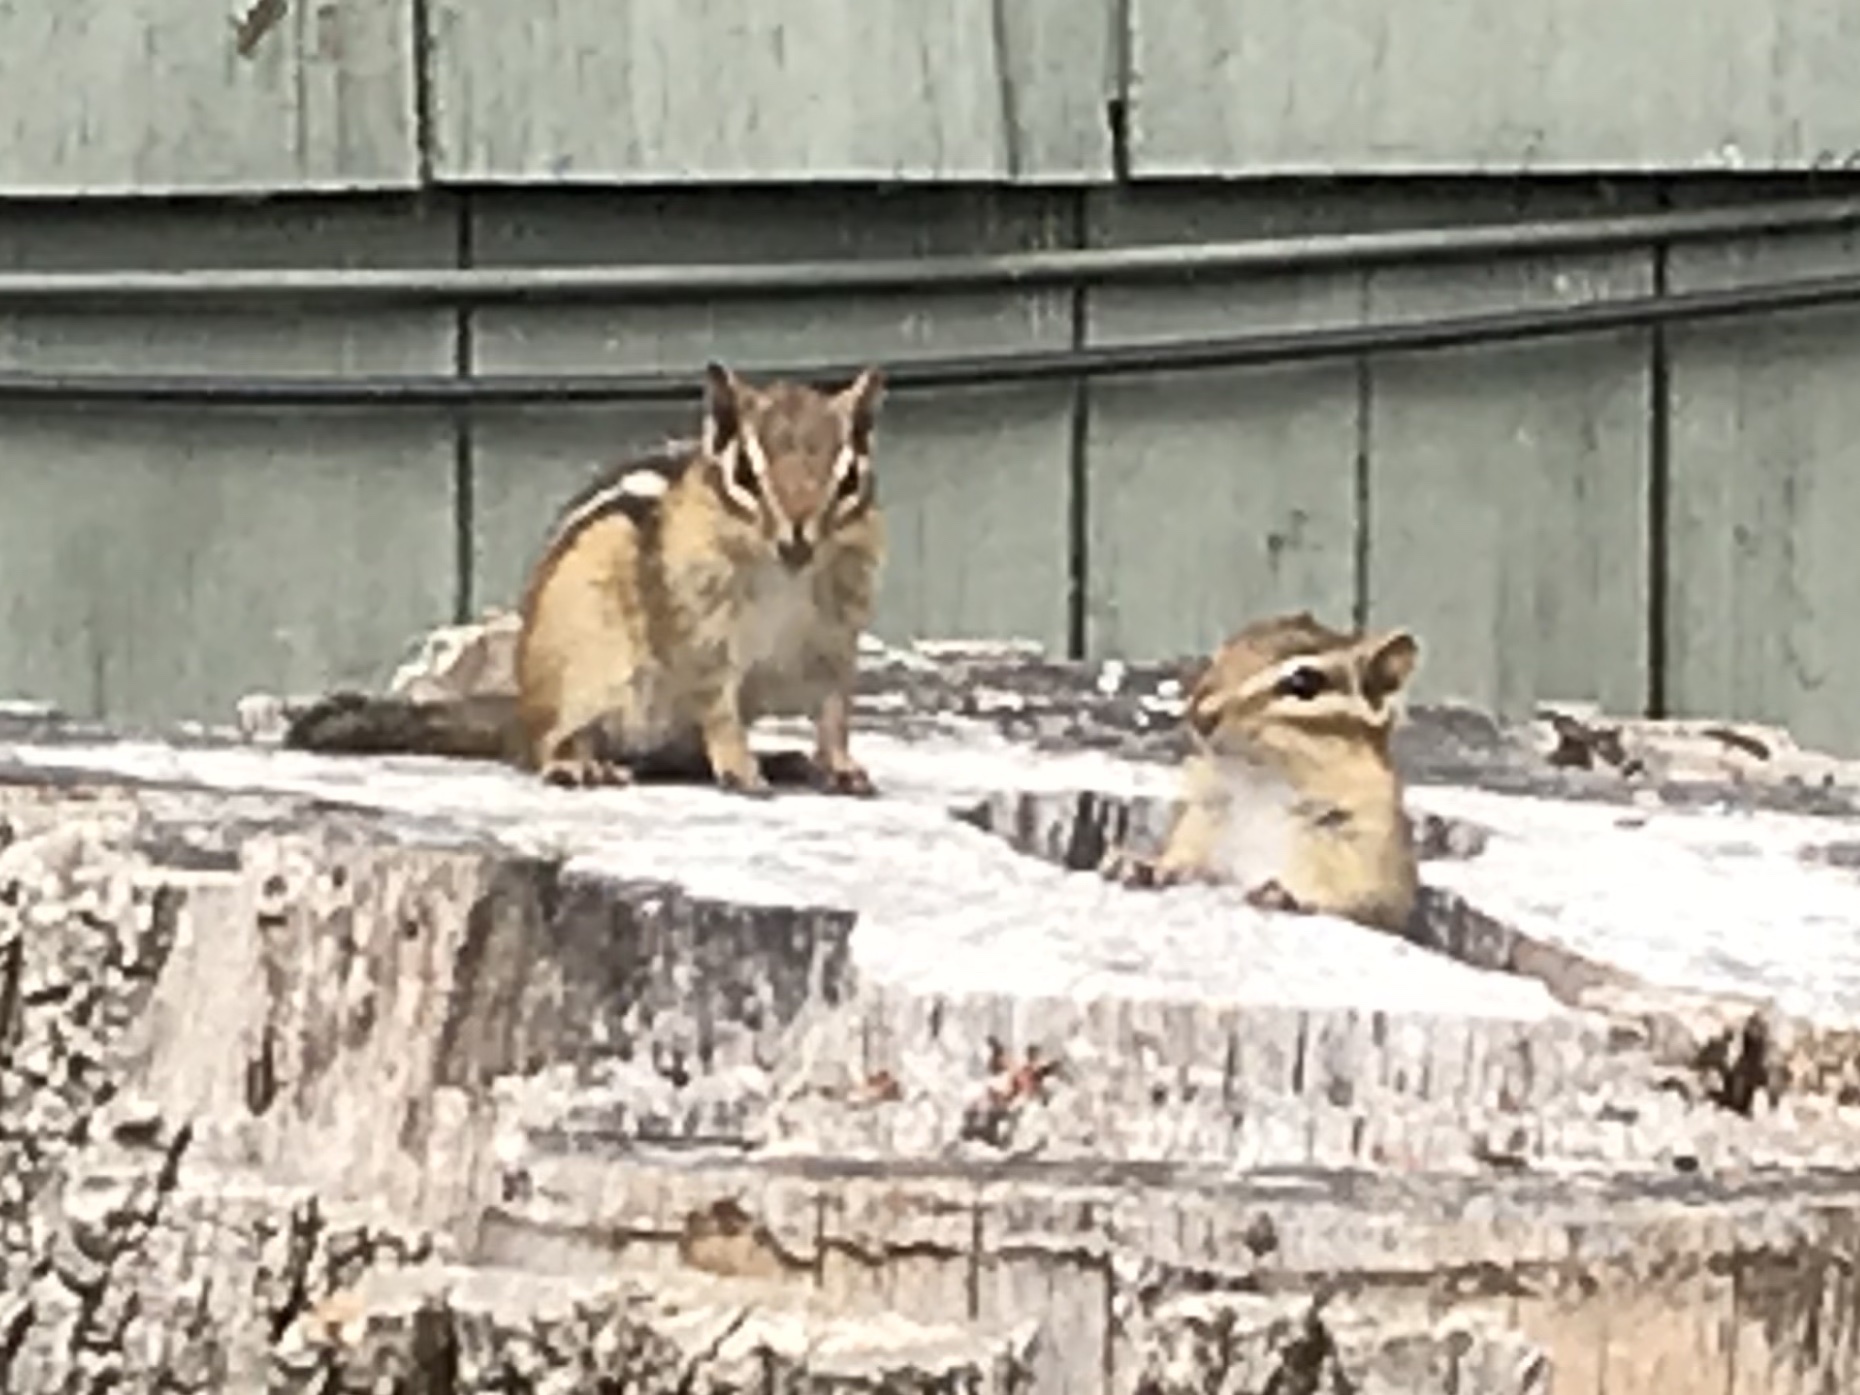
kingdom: Animalia
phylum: Chordata
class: Mammalia
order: Rodentia
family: Sciuridae
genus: Tamias
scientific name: Tamias striatus
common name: Eastern chipmunk
